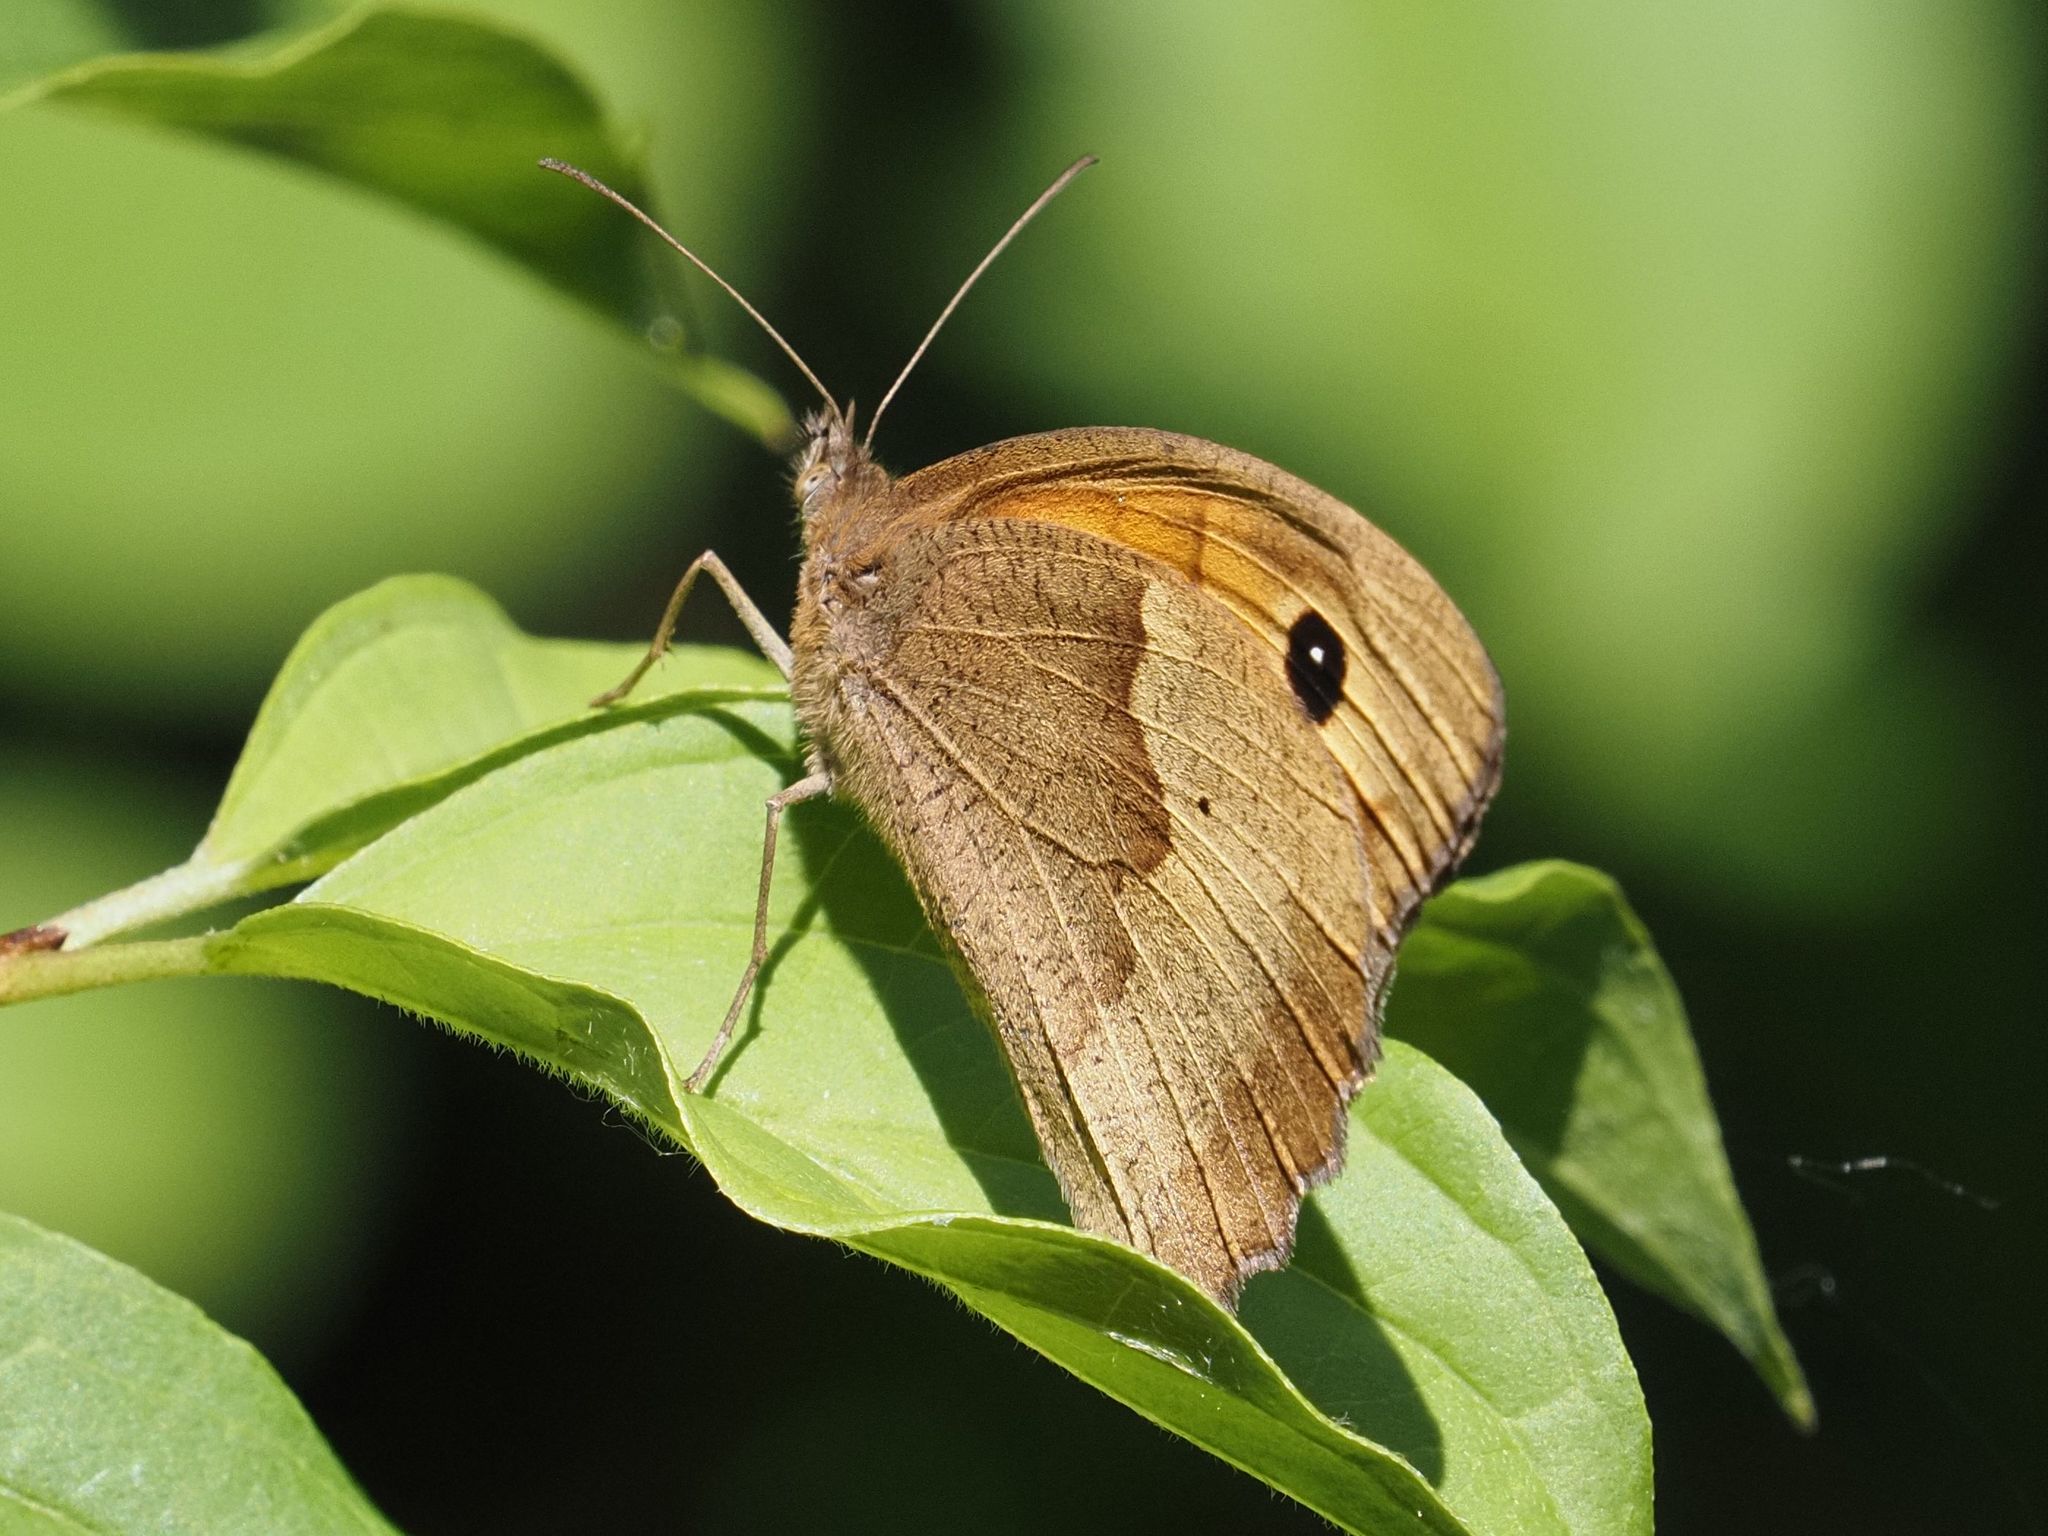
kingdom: Animalia
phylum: Arthropoda
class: Insecta
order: Lepidoptera
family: Nymphalidae
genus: Maniola
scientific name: Maniola jurtina
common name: Meadow brown
